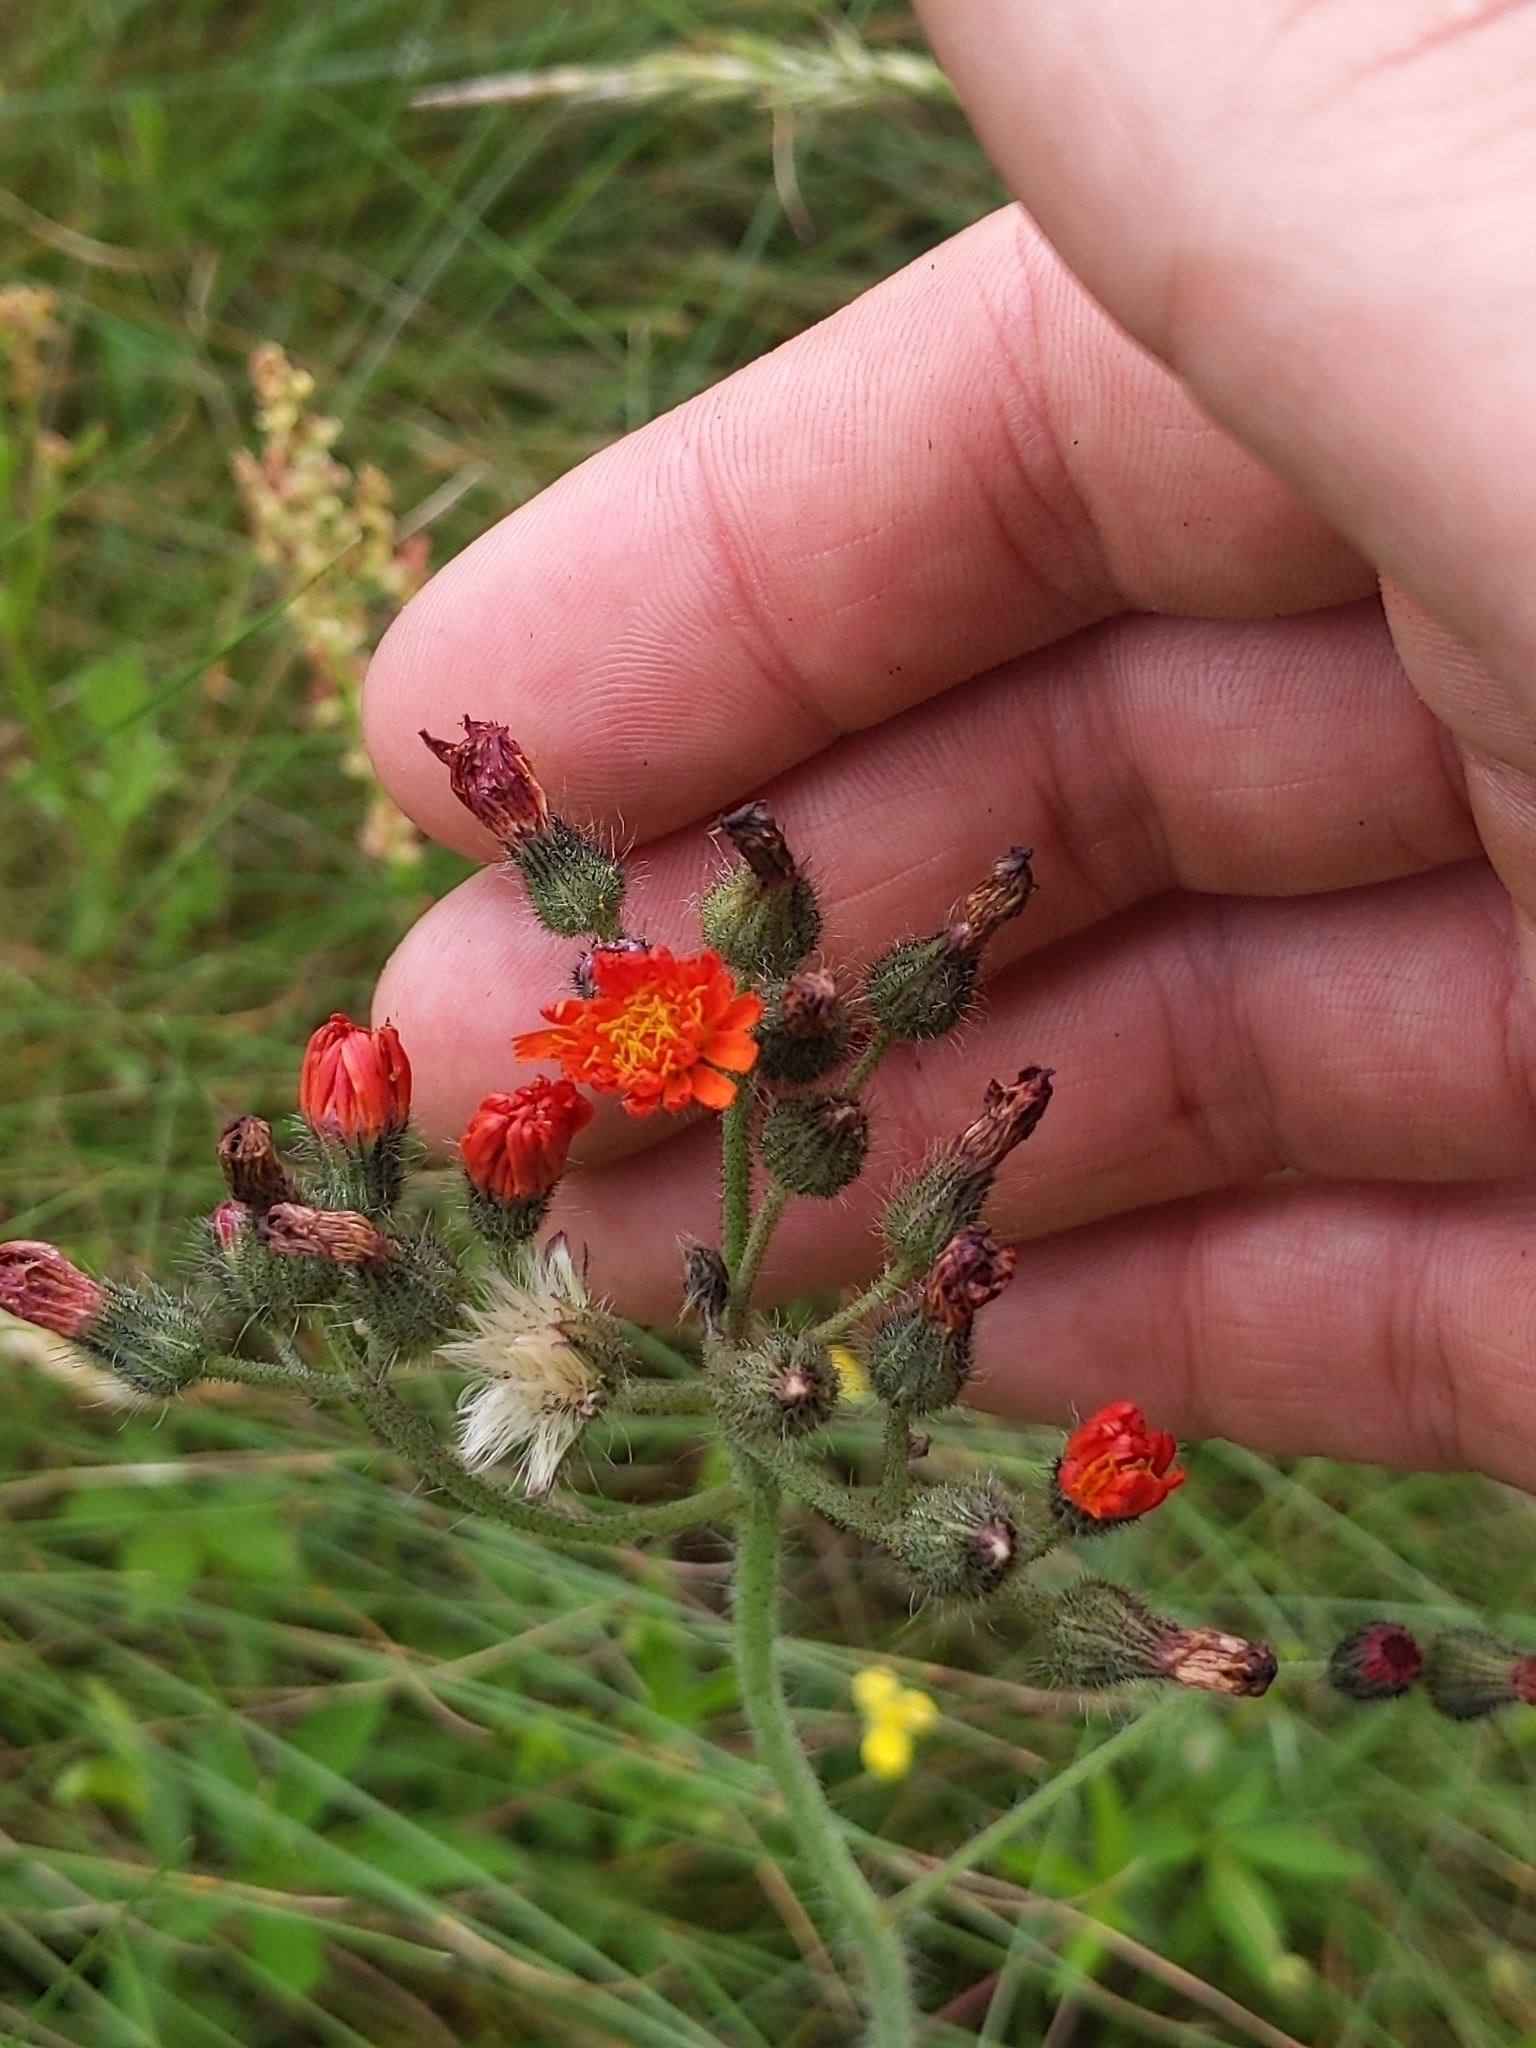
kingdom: Plantae
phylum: Tracheophyta
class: Magnoliopsida
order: Asterales
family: Asteraceae
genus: Pilosella
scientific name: Pilosella aurantiaca
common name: Fox-and-cubs
